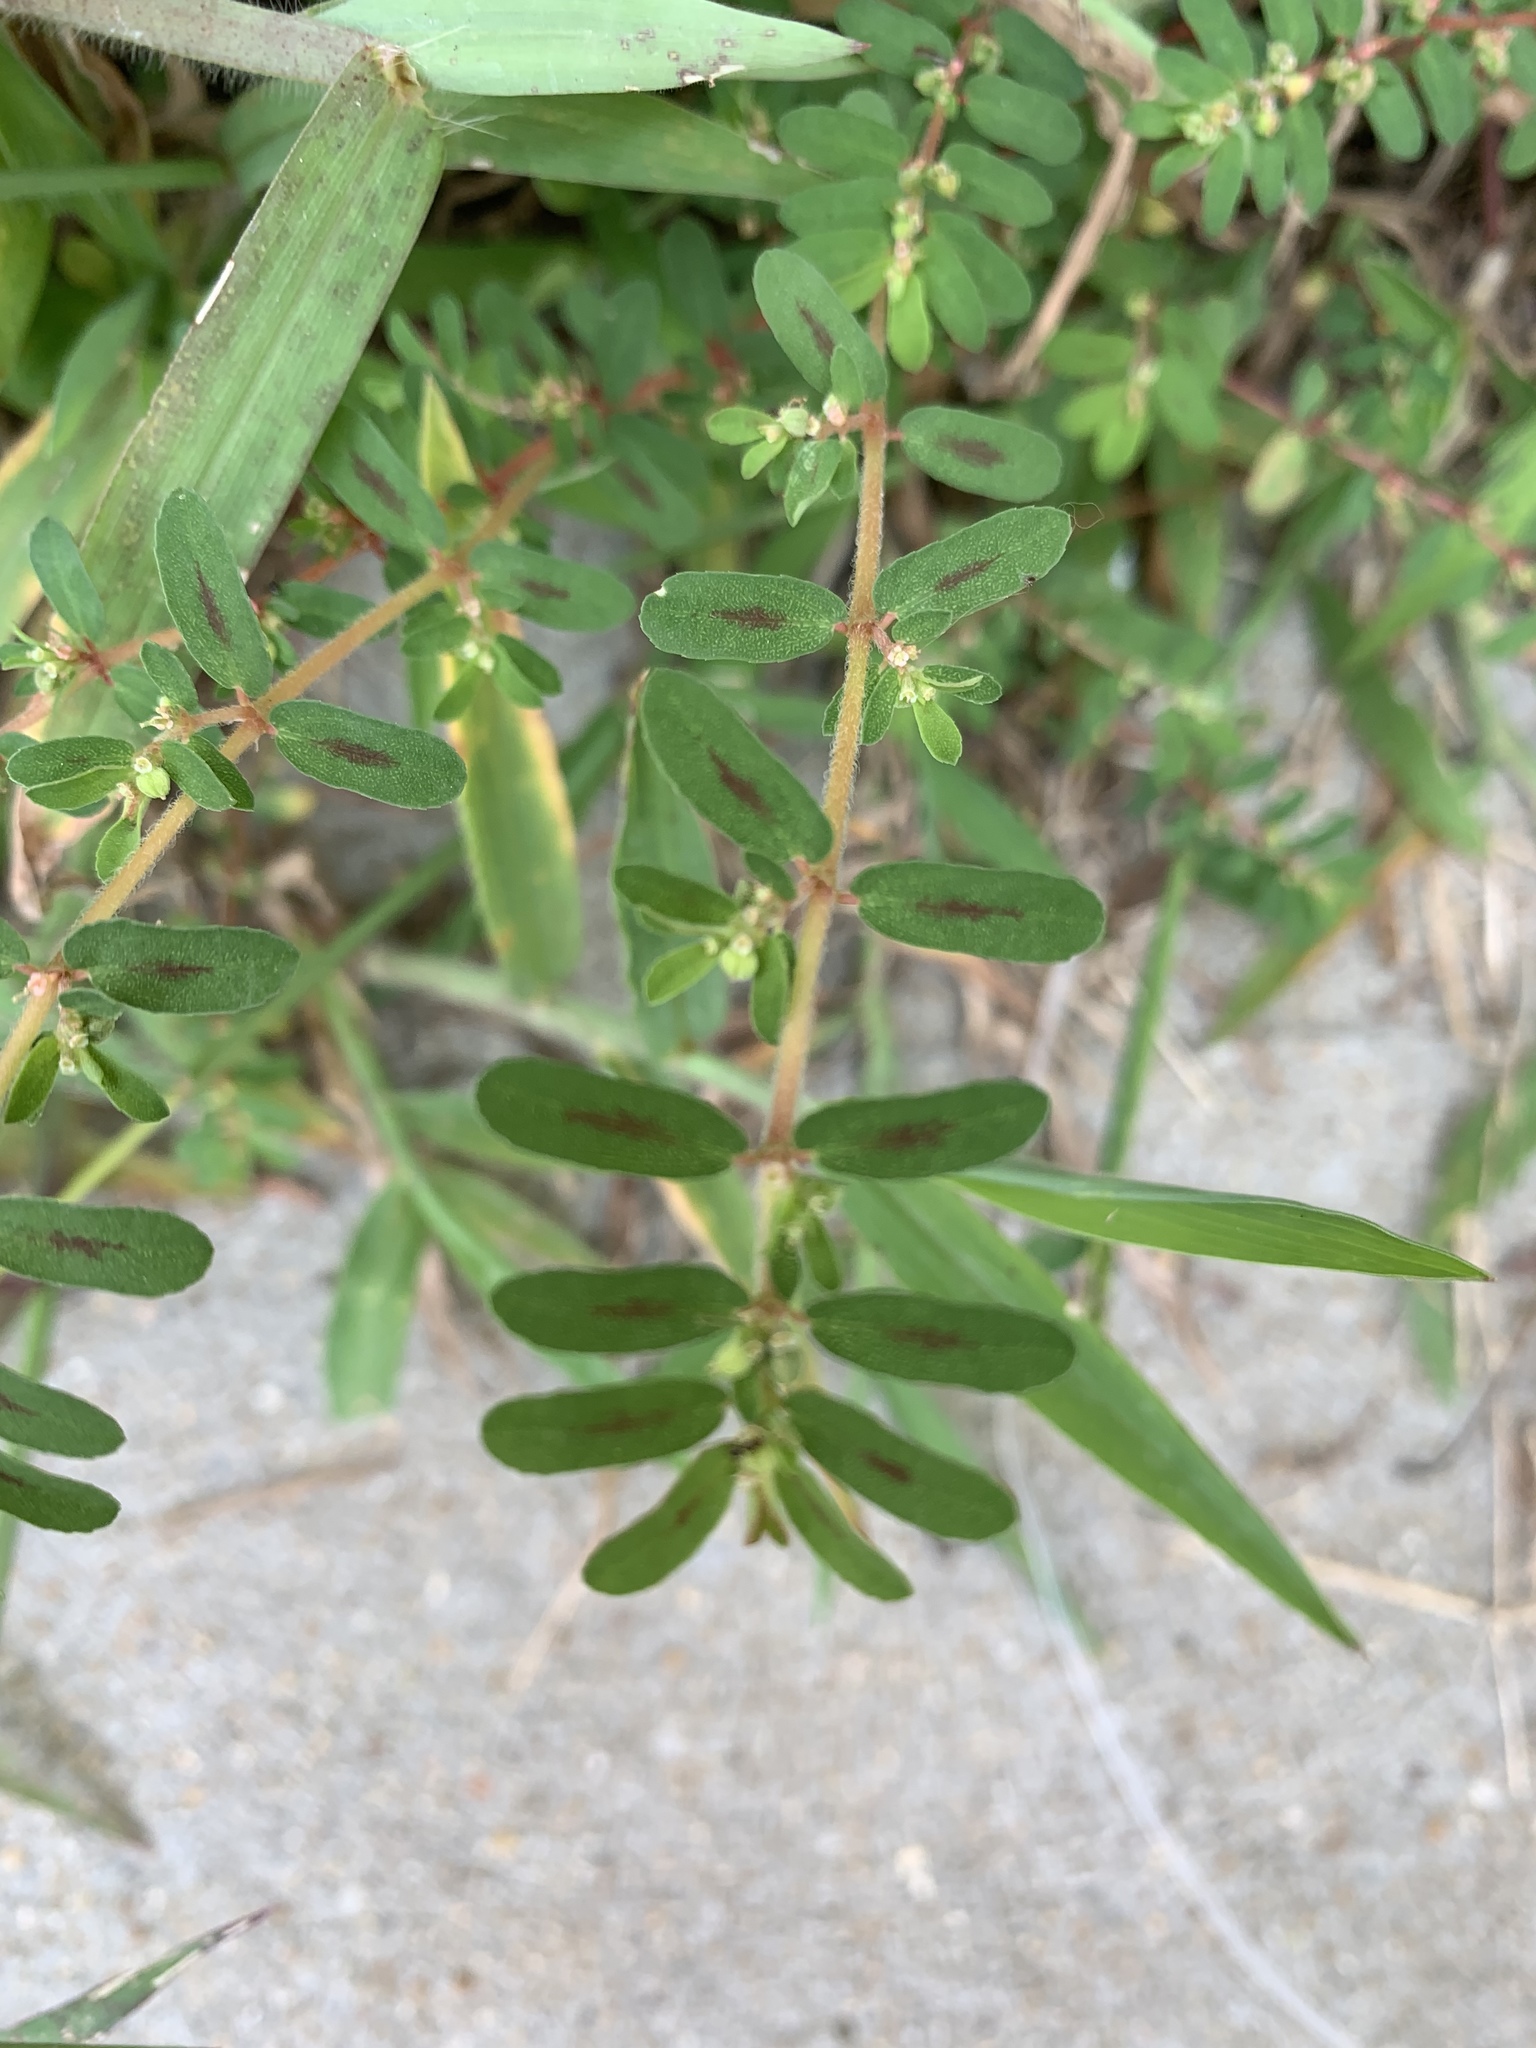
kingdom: Plantae
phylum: Tracheophyta
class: Magnoliopsida
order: Malpighiales
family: Euphorbiaceae
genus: Euphorbia
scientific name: Euphorbia maculata
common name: Spotted spurge
